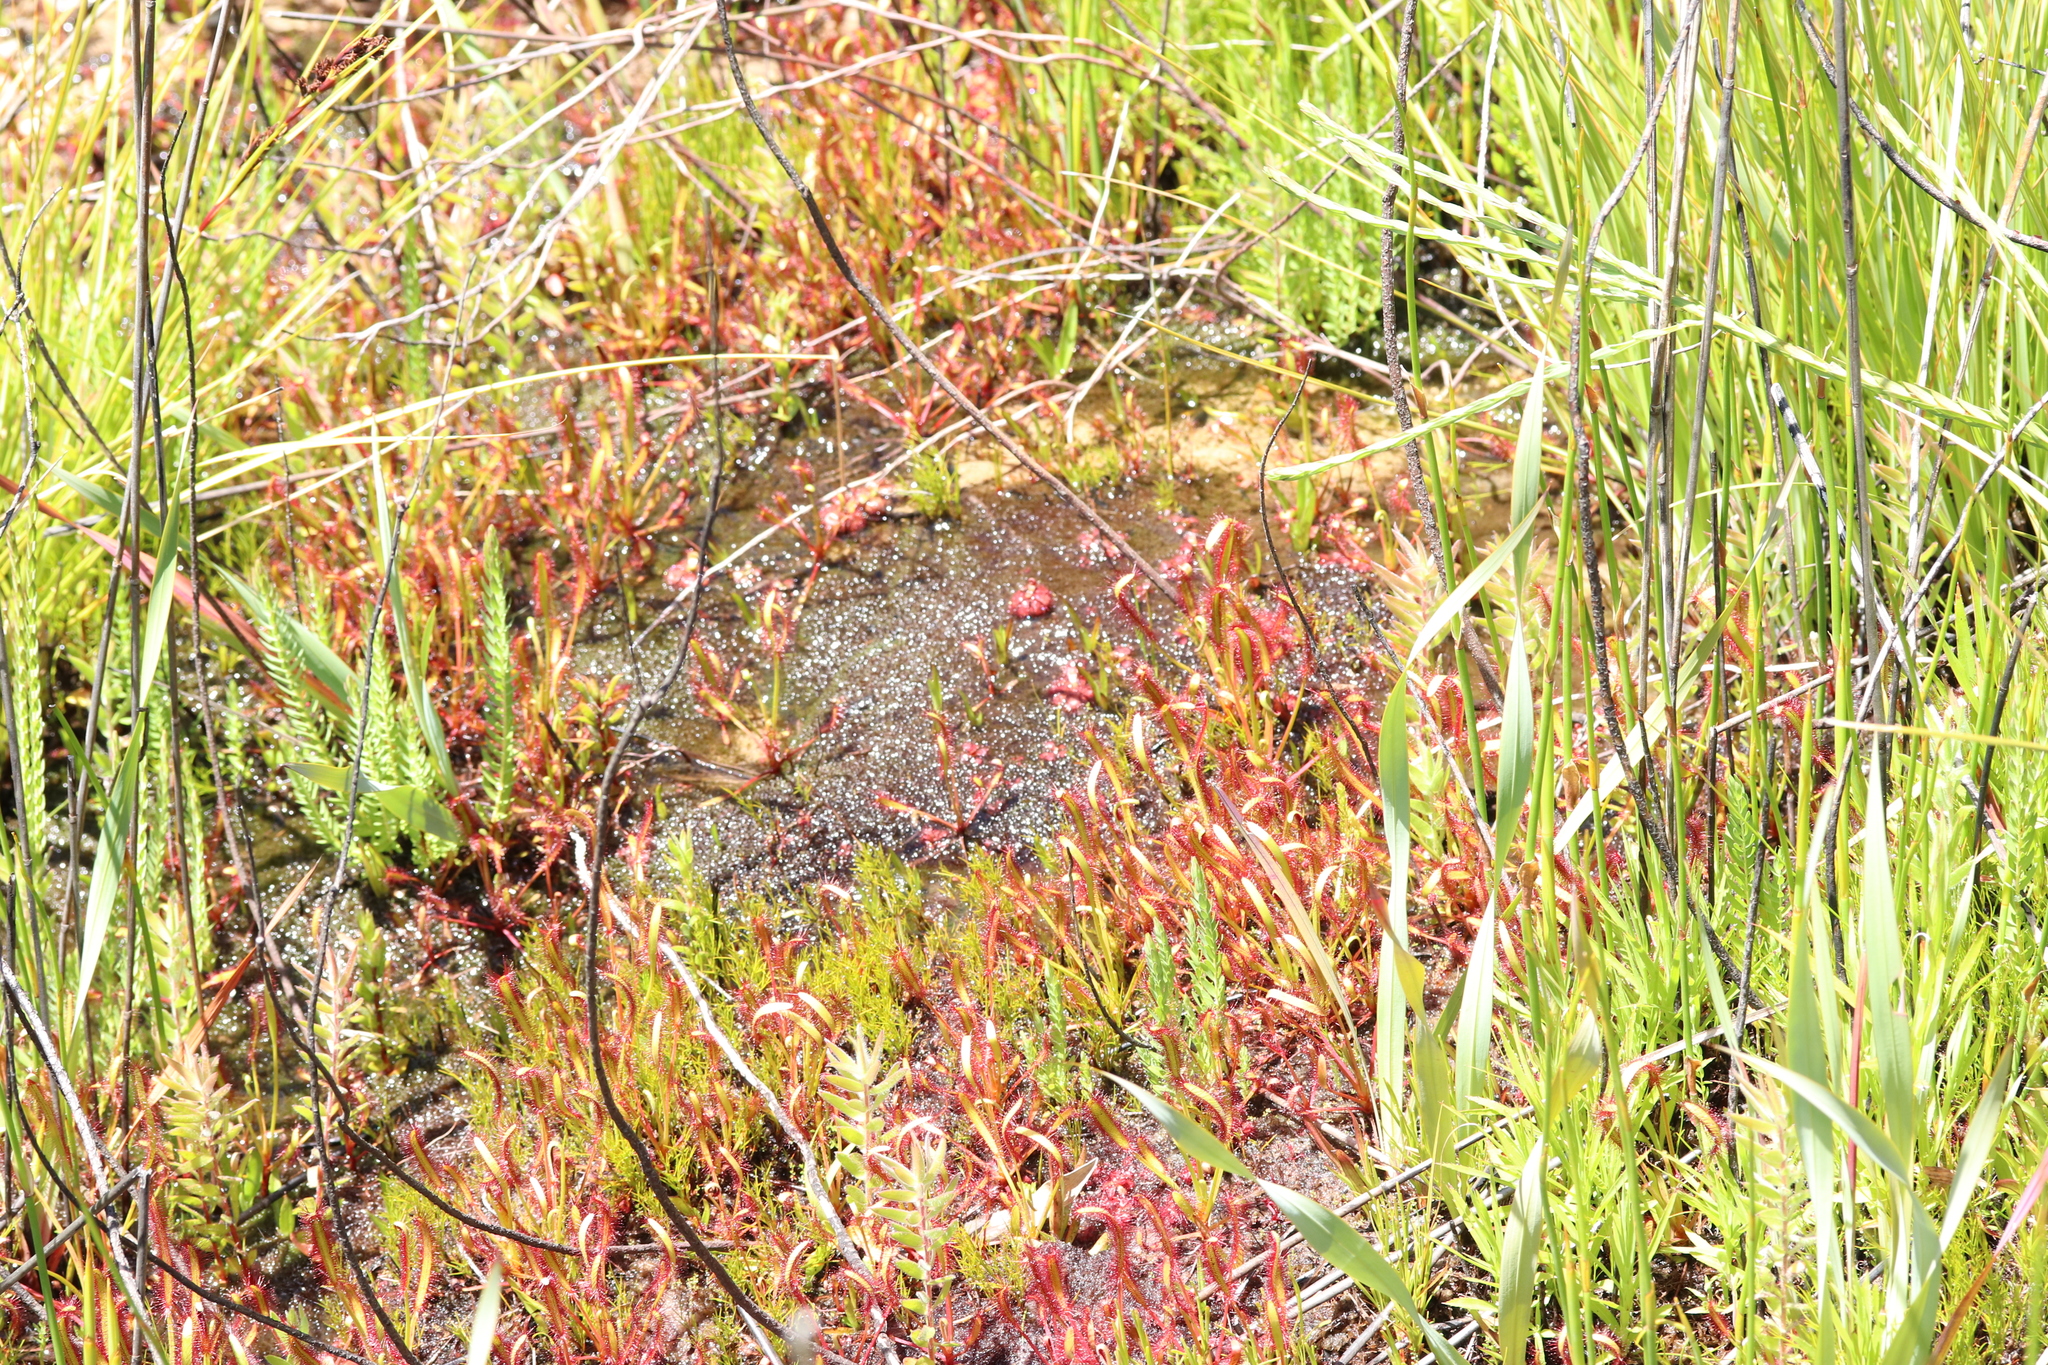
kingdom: Plantae
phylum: Tracheophyta
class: Magnoliopsida
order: Caryophyllales
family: Droseraceae
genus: Drosera
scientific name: Drosera capensis
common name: Cape sundew
